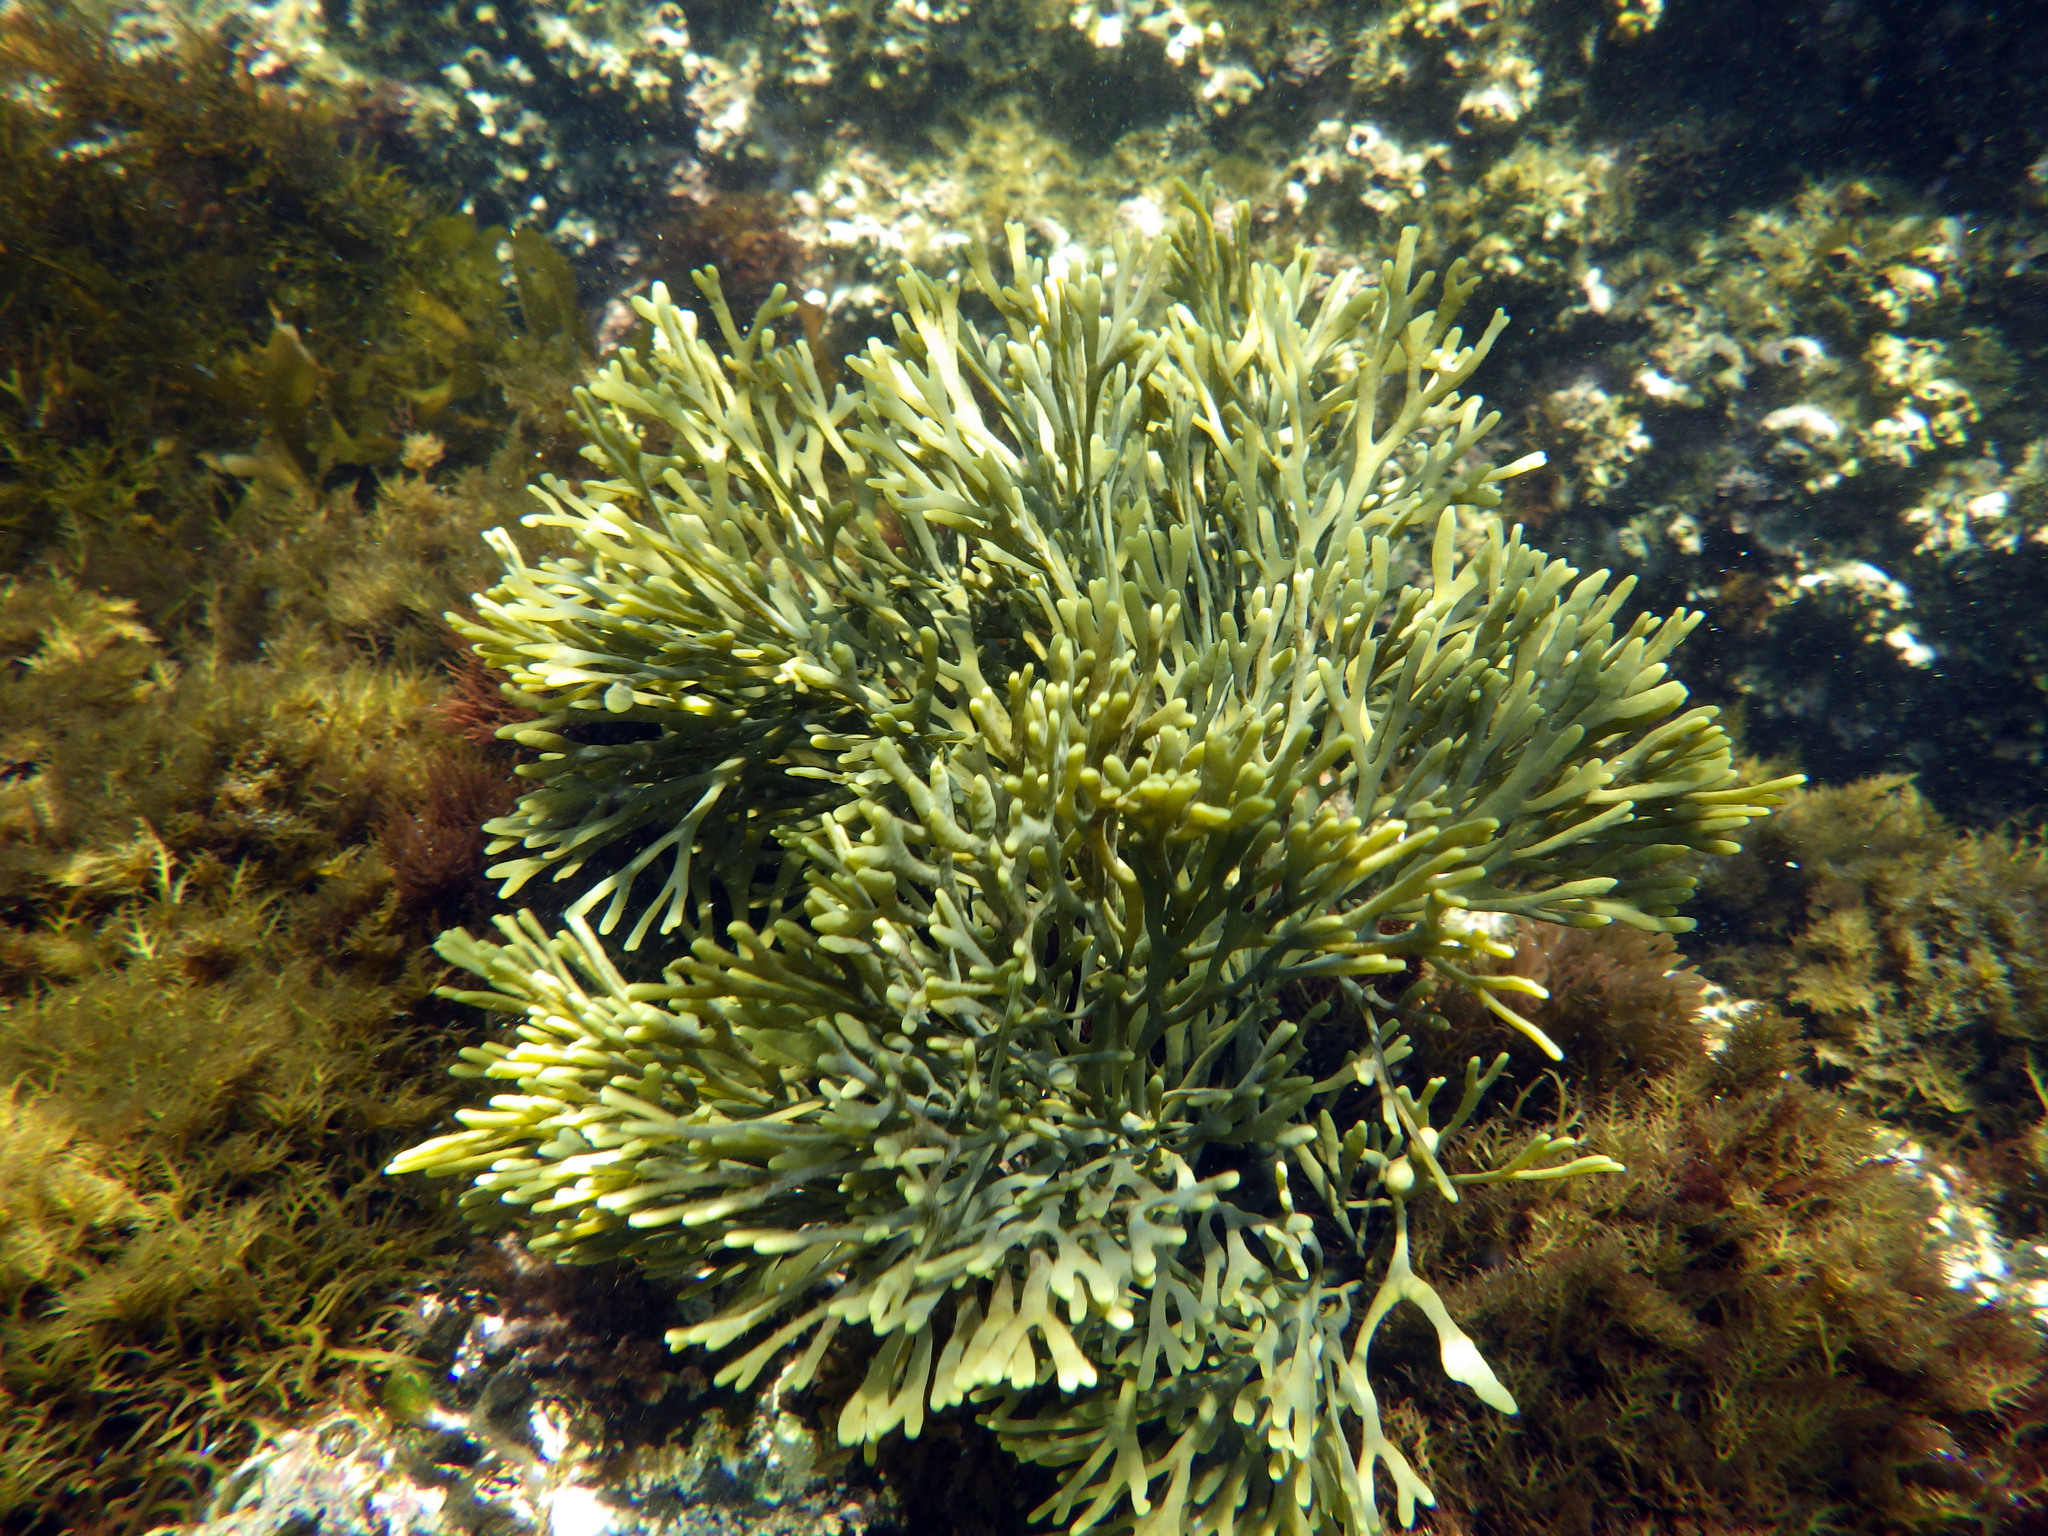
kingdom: Chromista
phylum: Ochrophyta
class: Phaeophyceae
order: Fucales
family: Fucaceae
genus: Silvetia
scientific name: Silvetia
